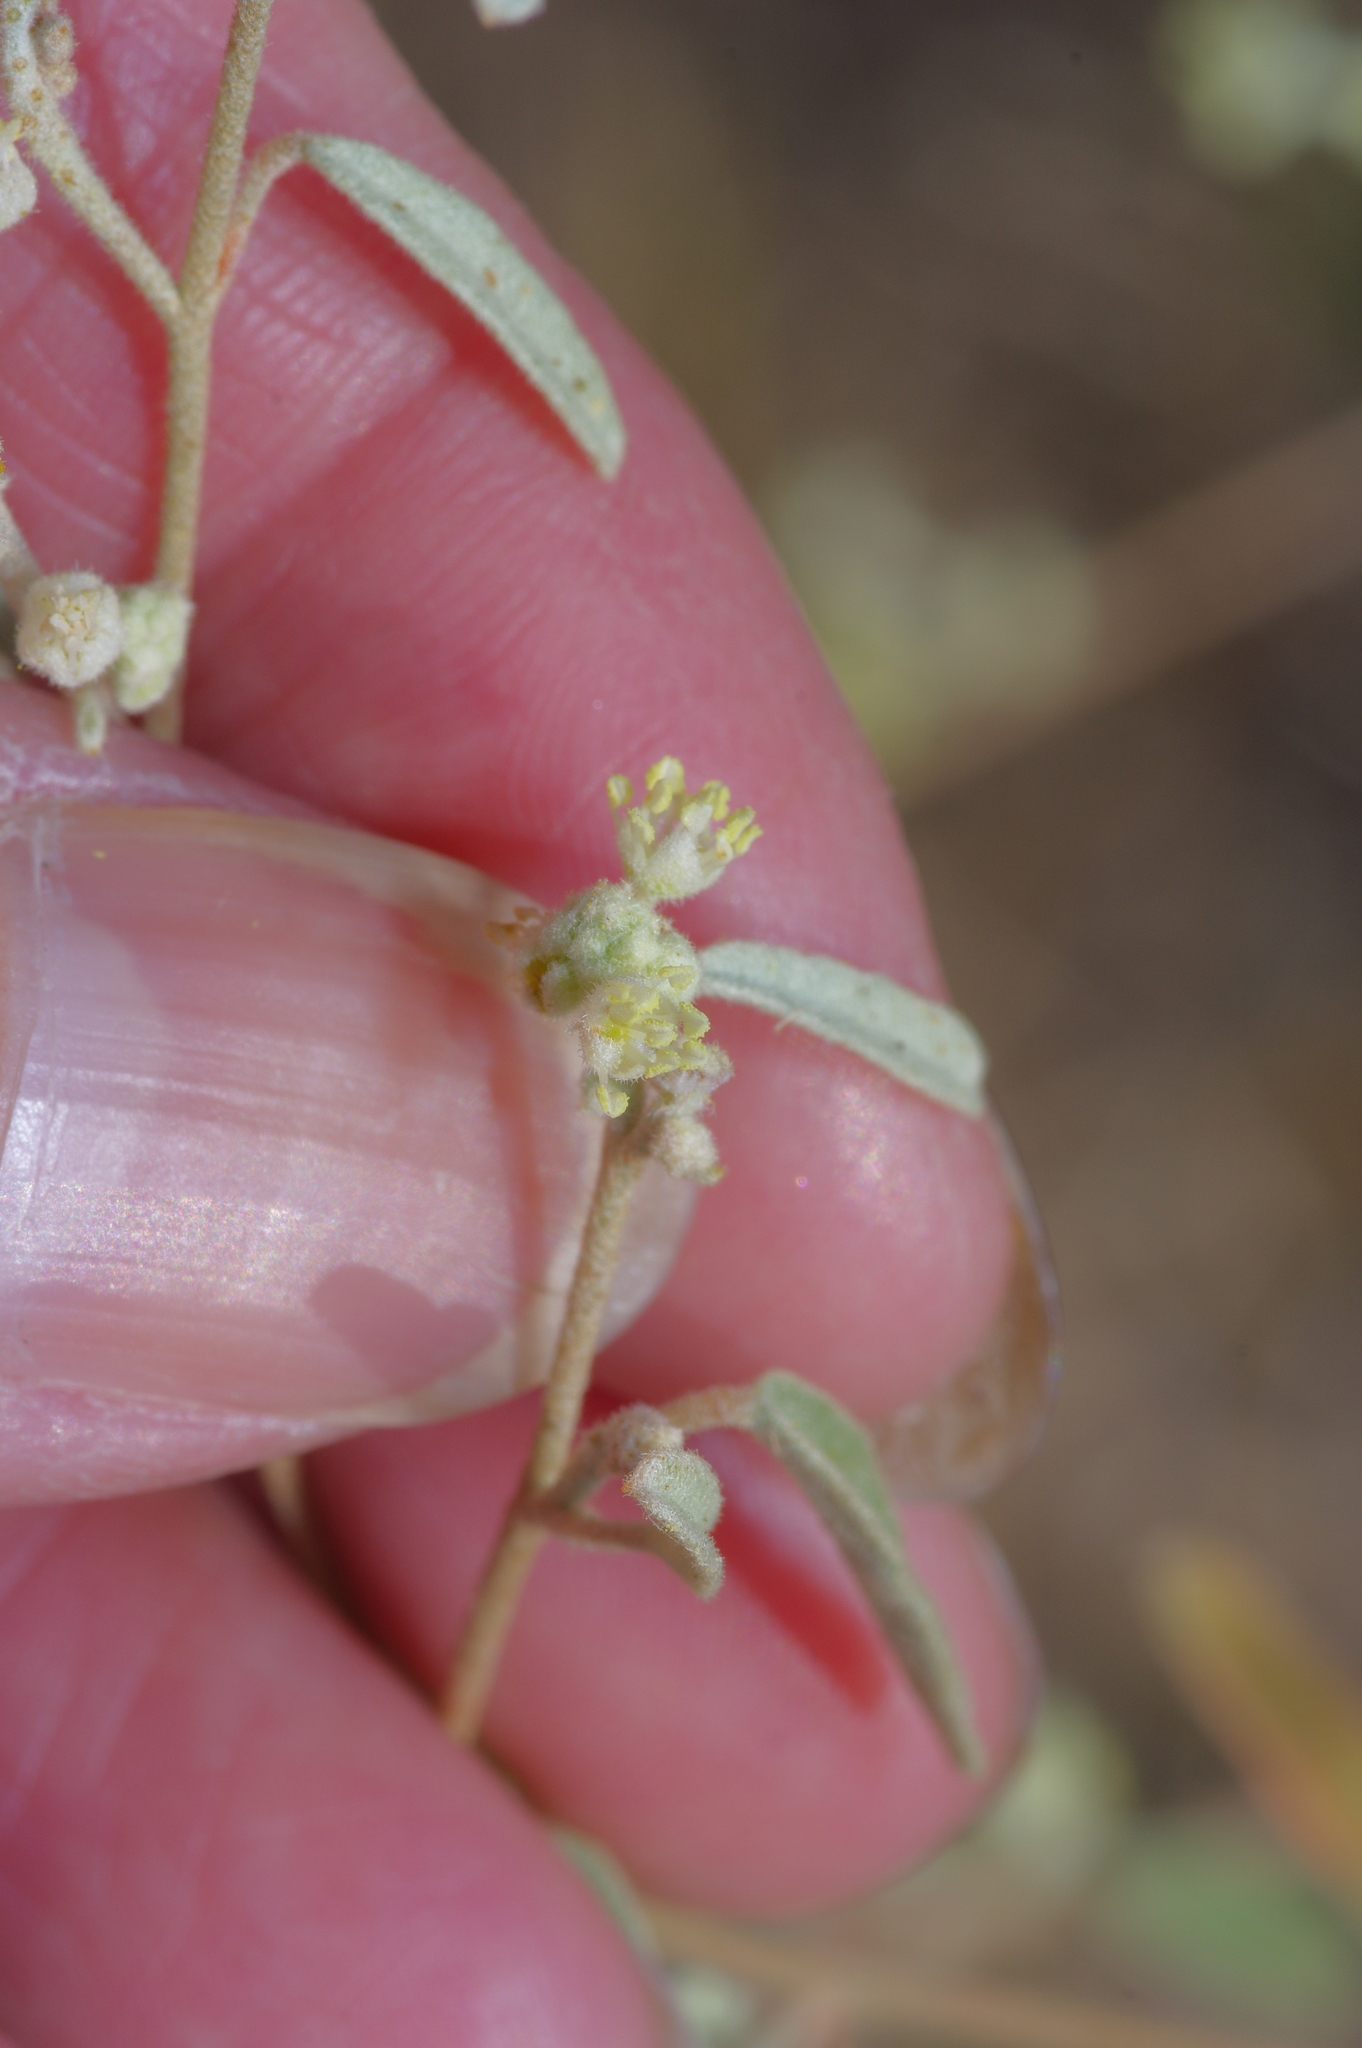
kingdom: Plantae
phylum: Tracheophyta
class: Magnoliopsida
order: Malpighiales
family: Euphorbiaceae
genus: Croton
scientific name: Croton texensis
